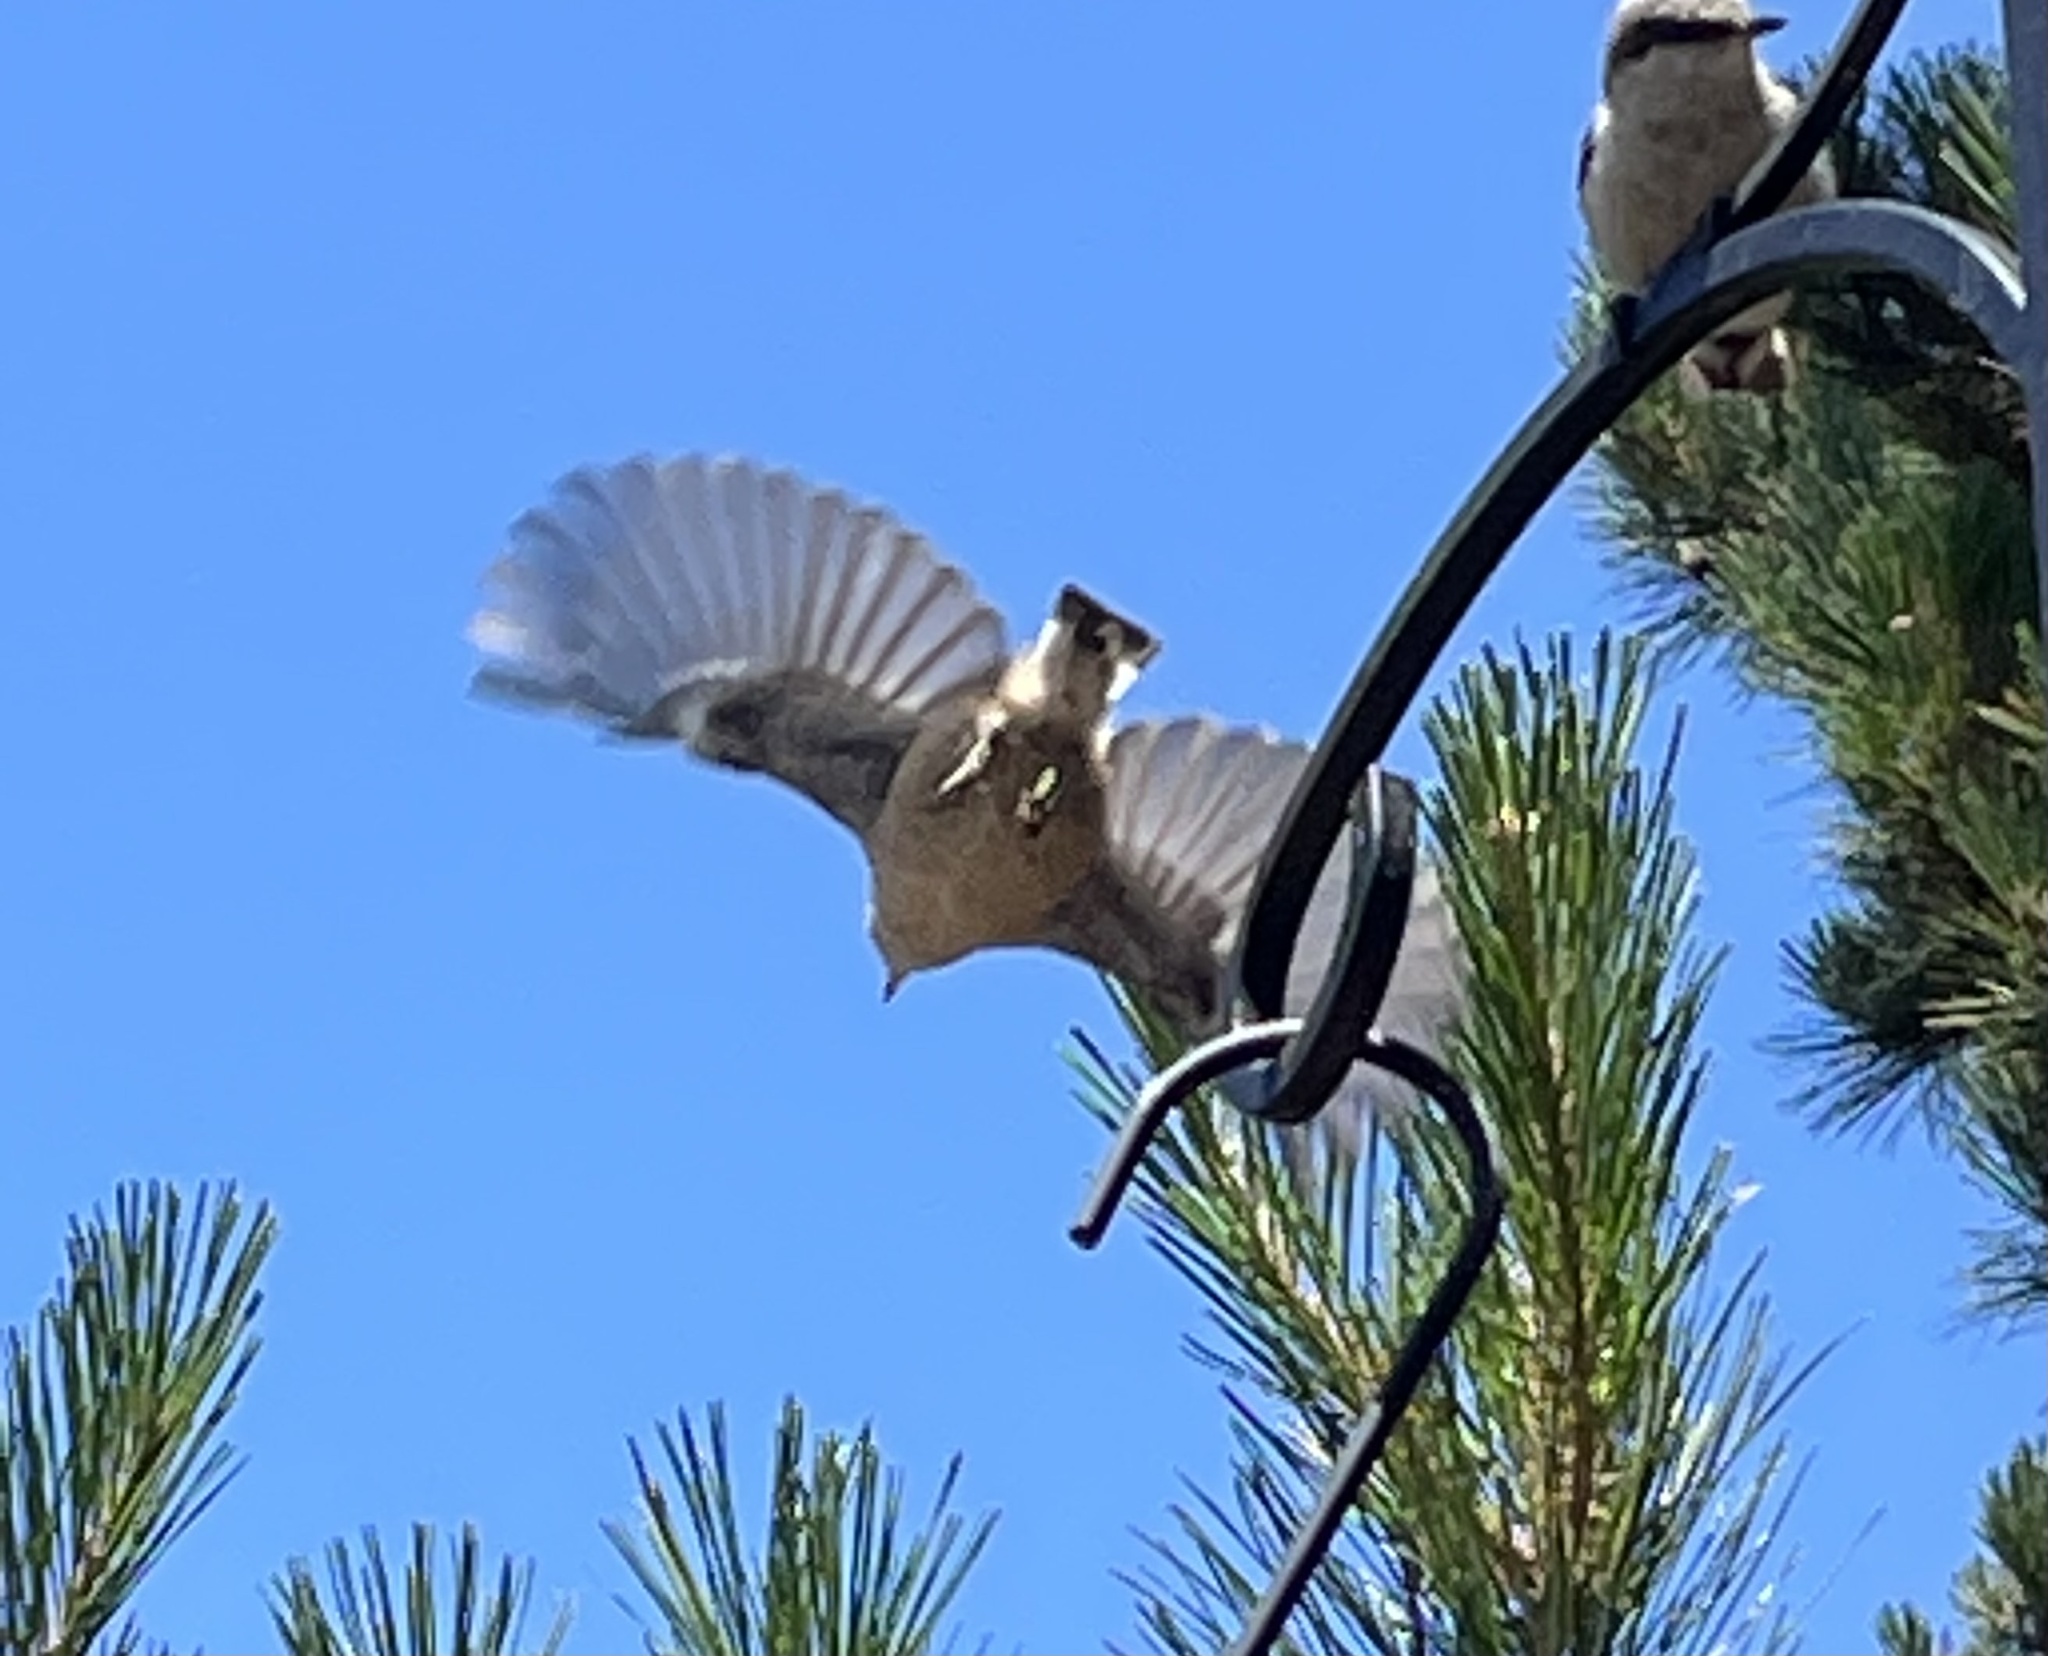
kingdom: Animalia
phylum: Chordata
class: Aves
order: Passeriformes
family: Sittidae
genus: Sitta
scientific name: Sitta pygmaea
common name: Pygmy nuthatch
